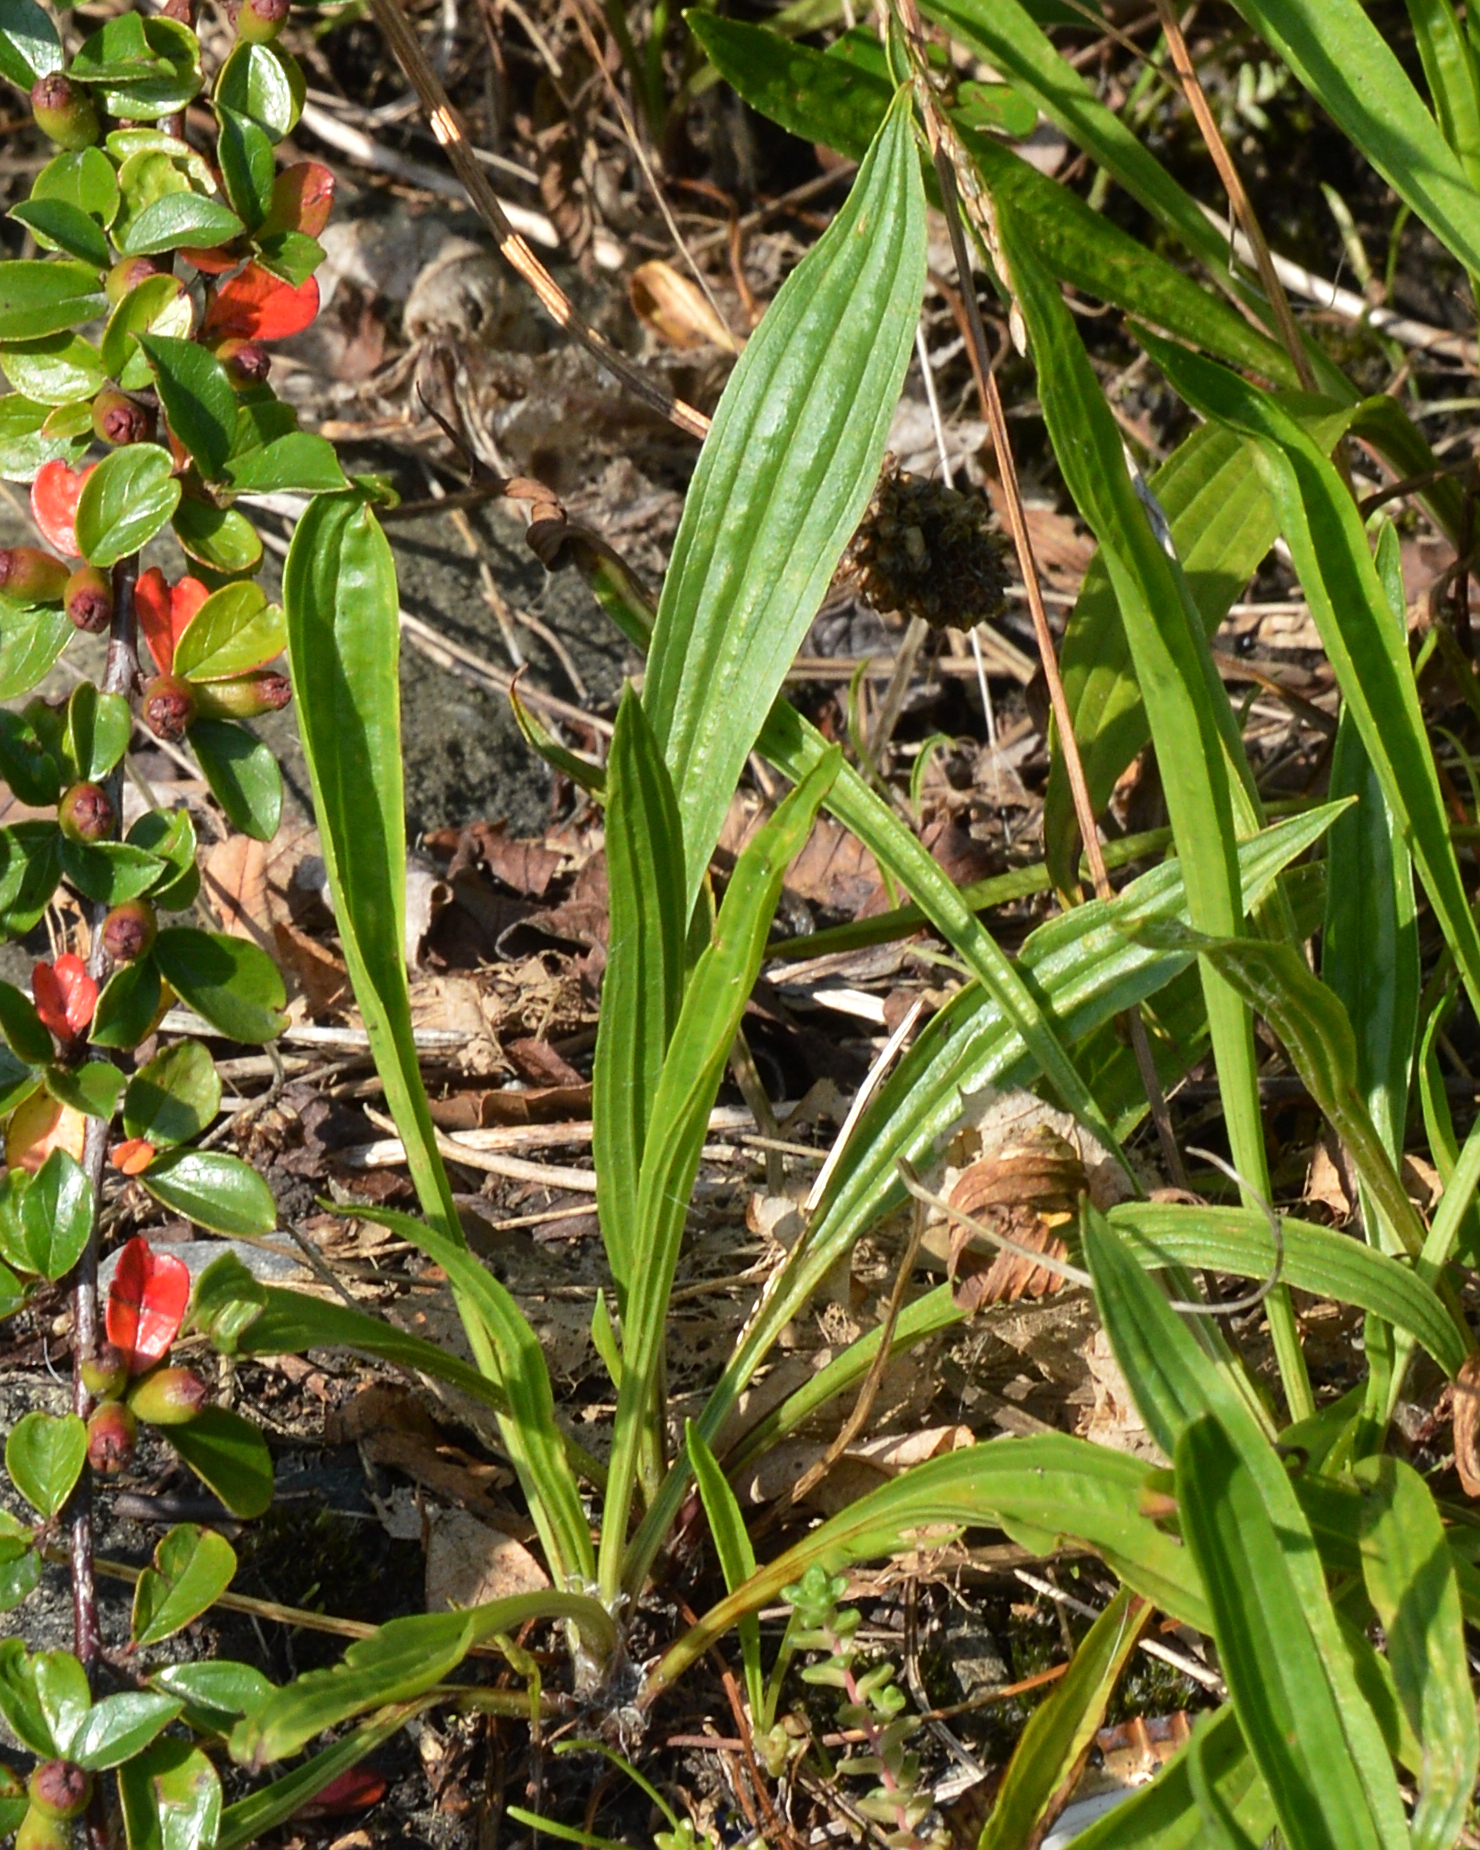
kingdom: Plantae
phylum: Tracheophyta
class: Magnoliopsida
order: Lamiales
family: Plantaginaceae
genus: Plantago
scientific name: Plantago lanceolata
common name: Ribwort plantain
